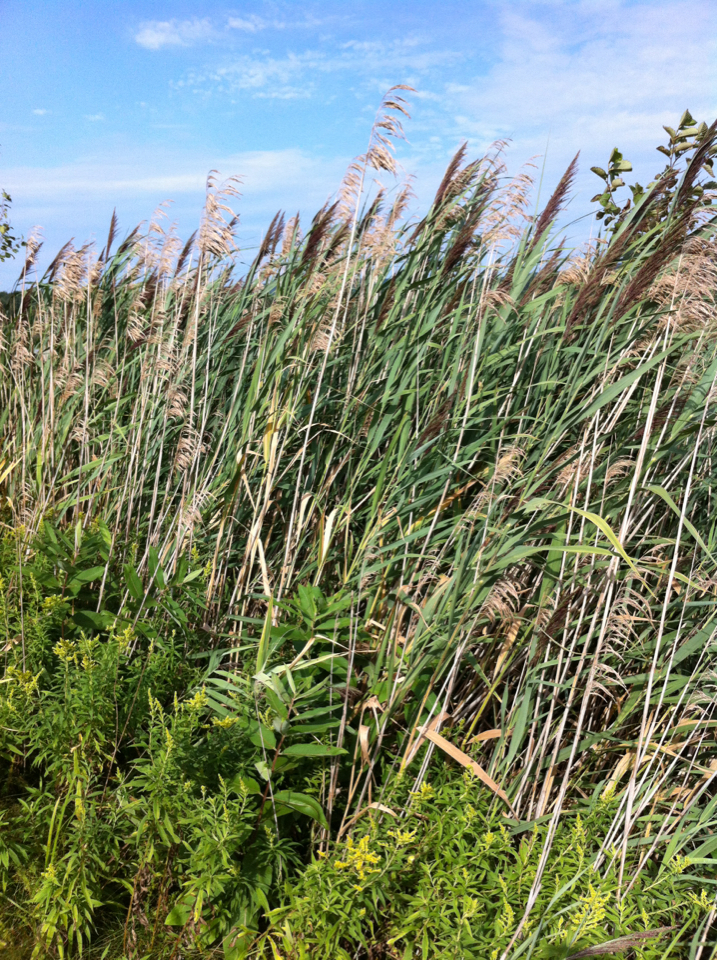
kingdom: Plantae
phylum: Tracheophyta
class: Liliopsida
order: Poales
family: Poaceae
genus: Phragmites
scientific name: Phragmites australis
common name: Common reed
